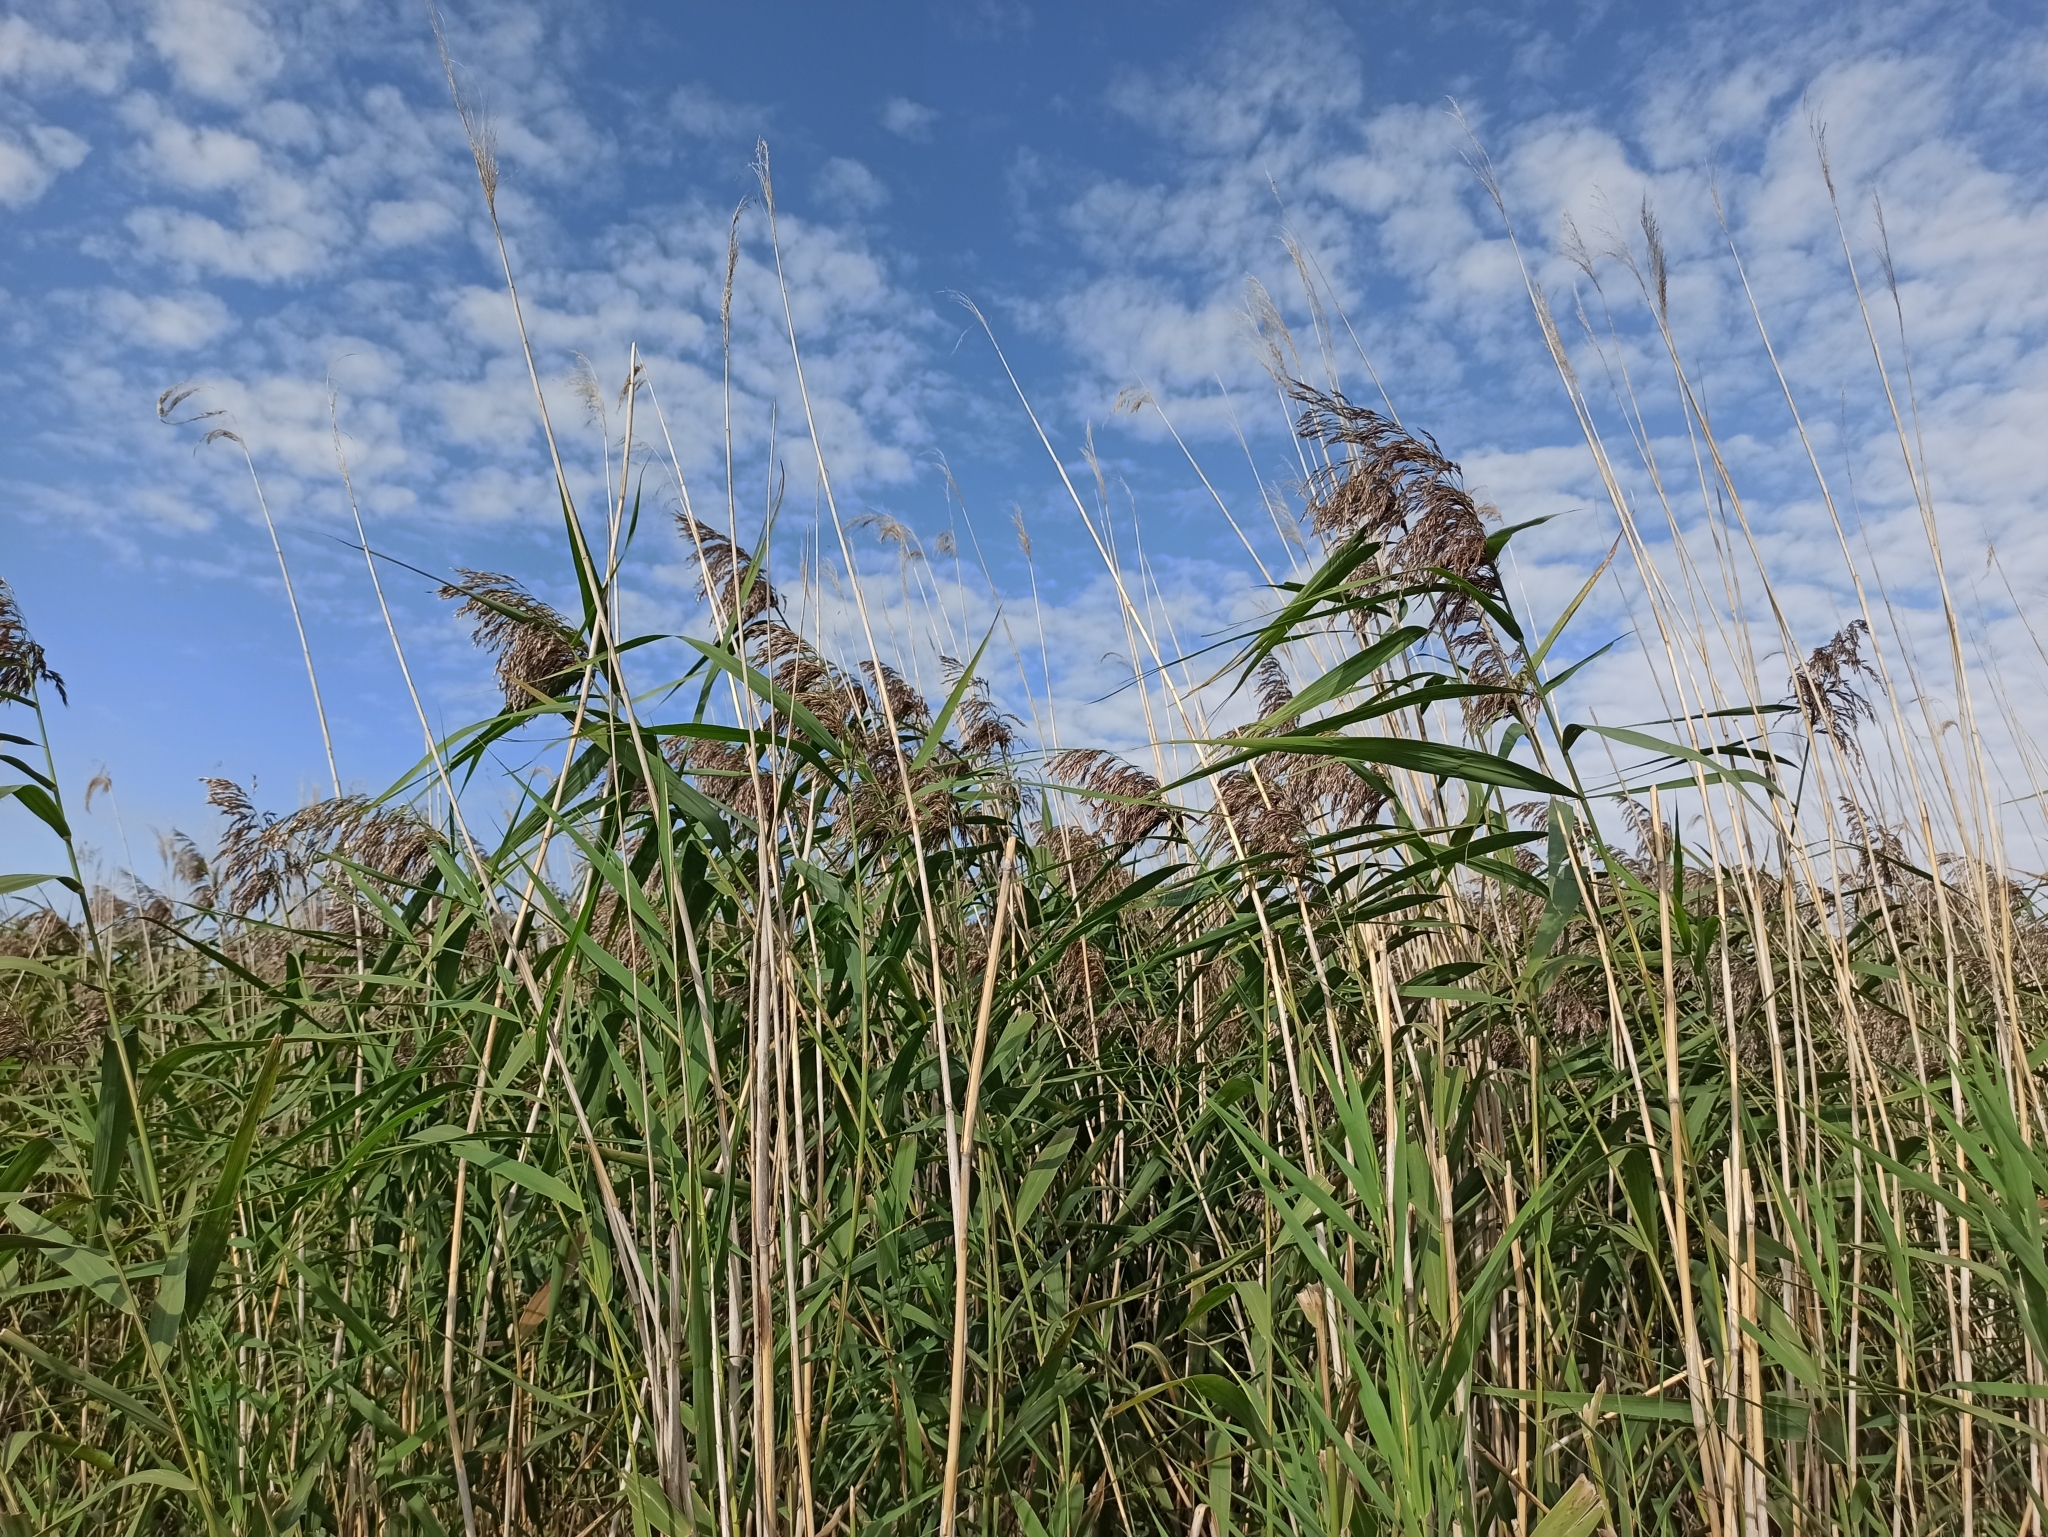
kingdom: Plantae
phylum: Tracheophyta
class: Liliopsida
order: Poales
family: Poaceae
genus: Phragmites
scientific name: Phragmites australis
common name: Common reed
